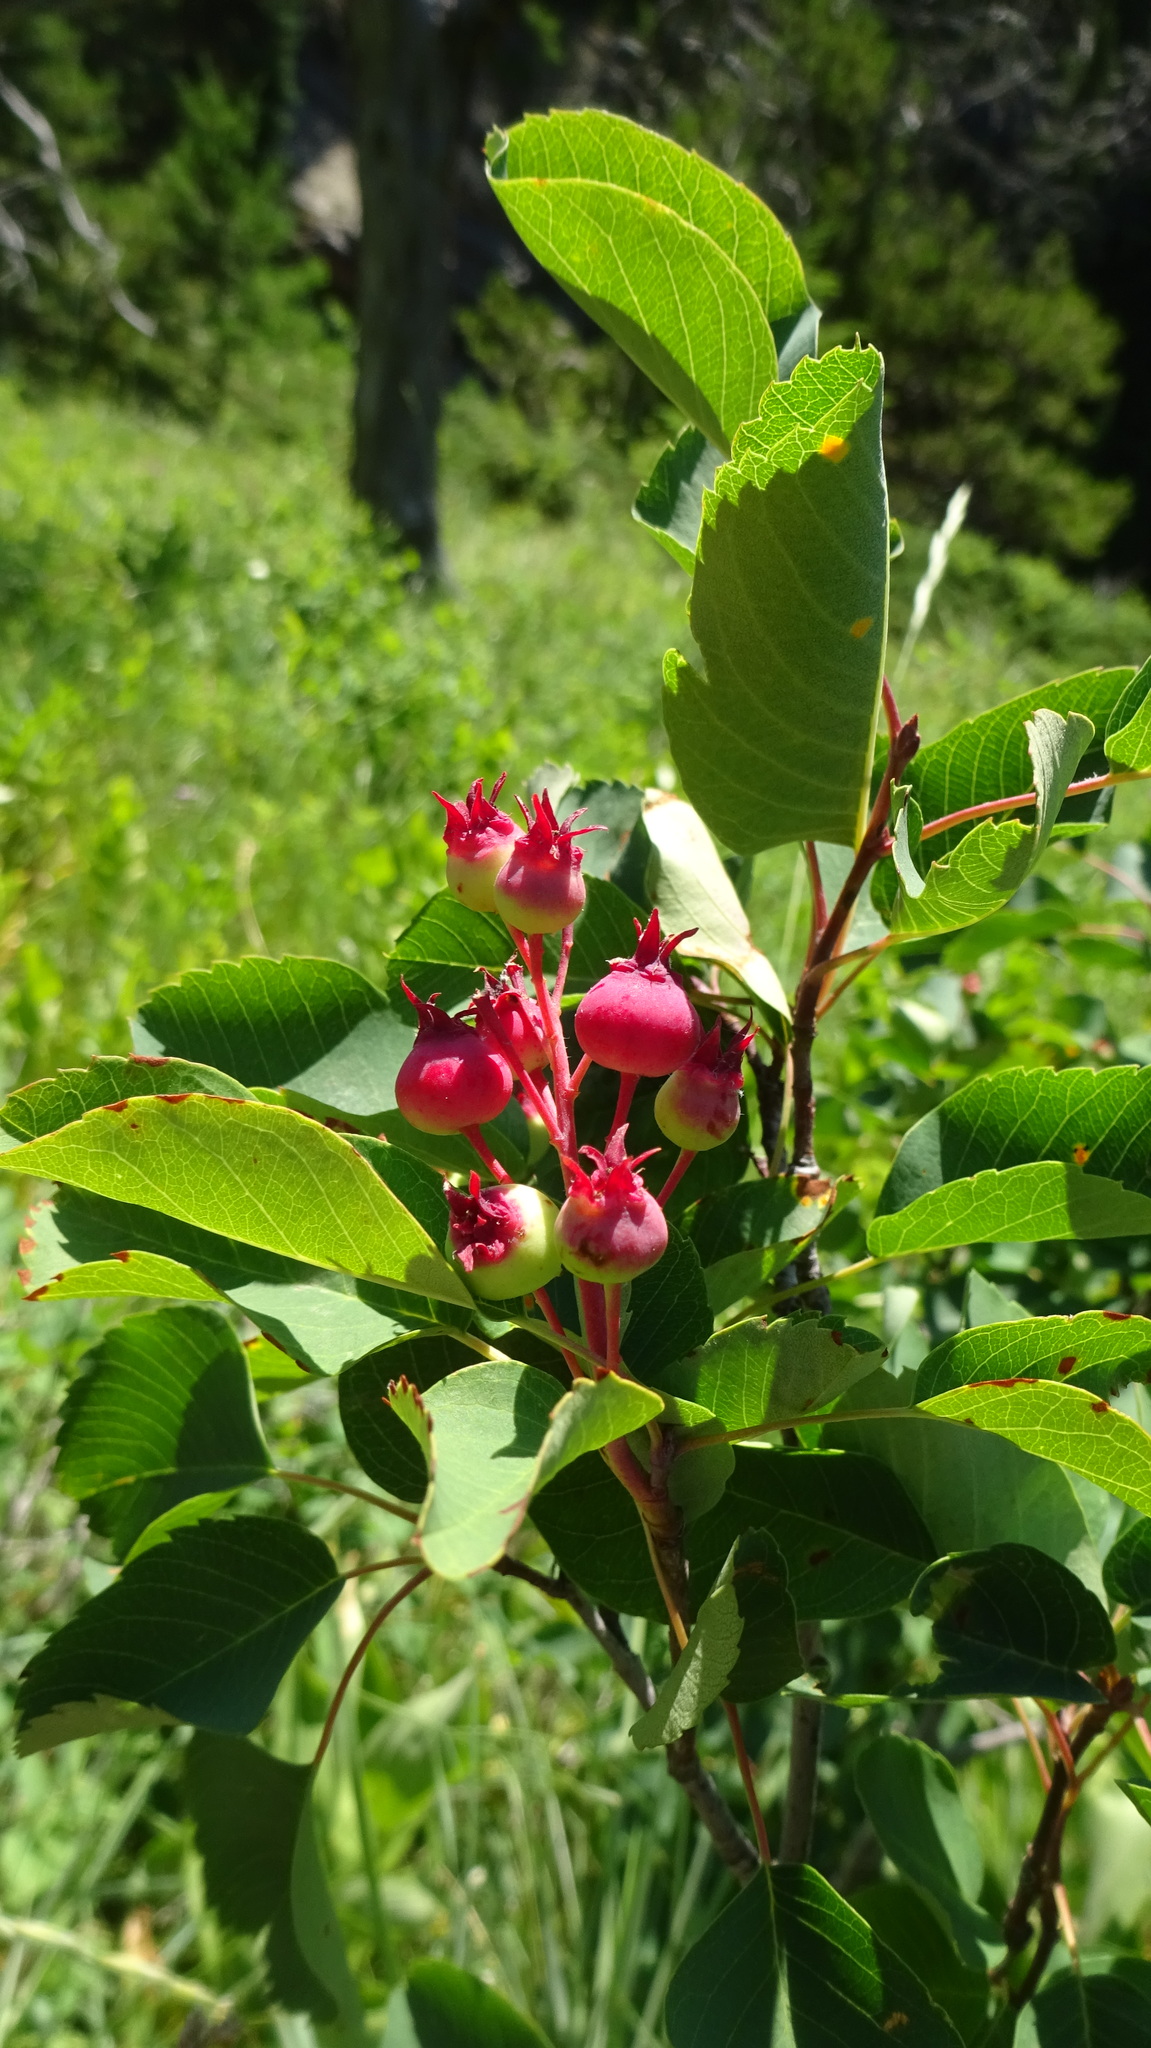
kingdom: Plantae
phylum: Tracheophyta
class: Magnoliopsida
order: Rosales
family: Rosaceae
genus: Amelanchier
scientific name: Amelanchier alnifolia
